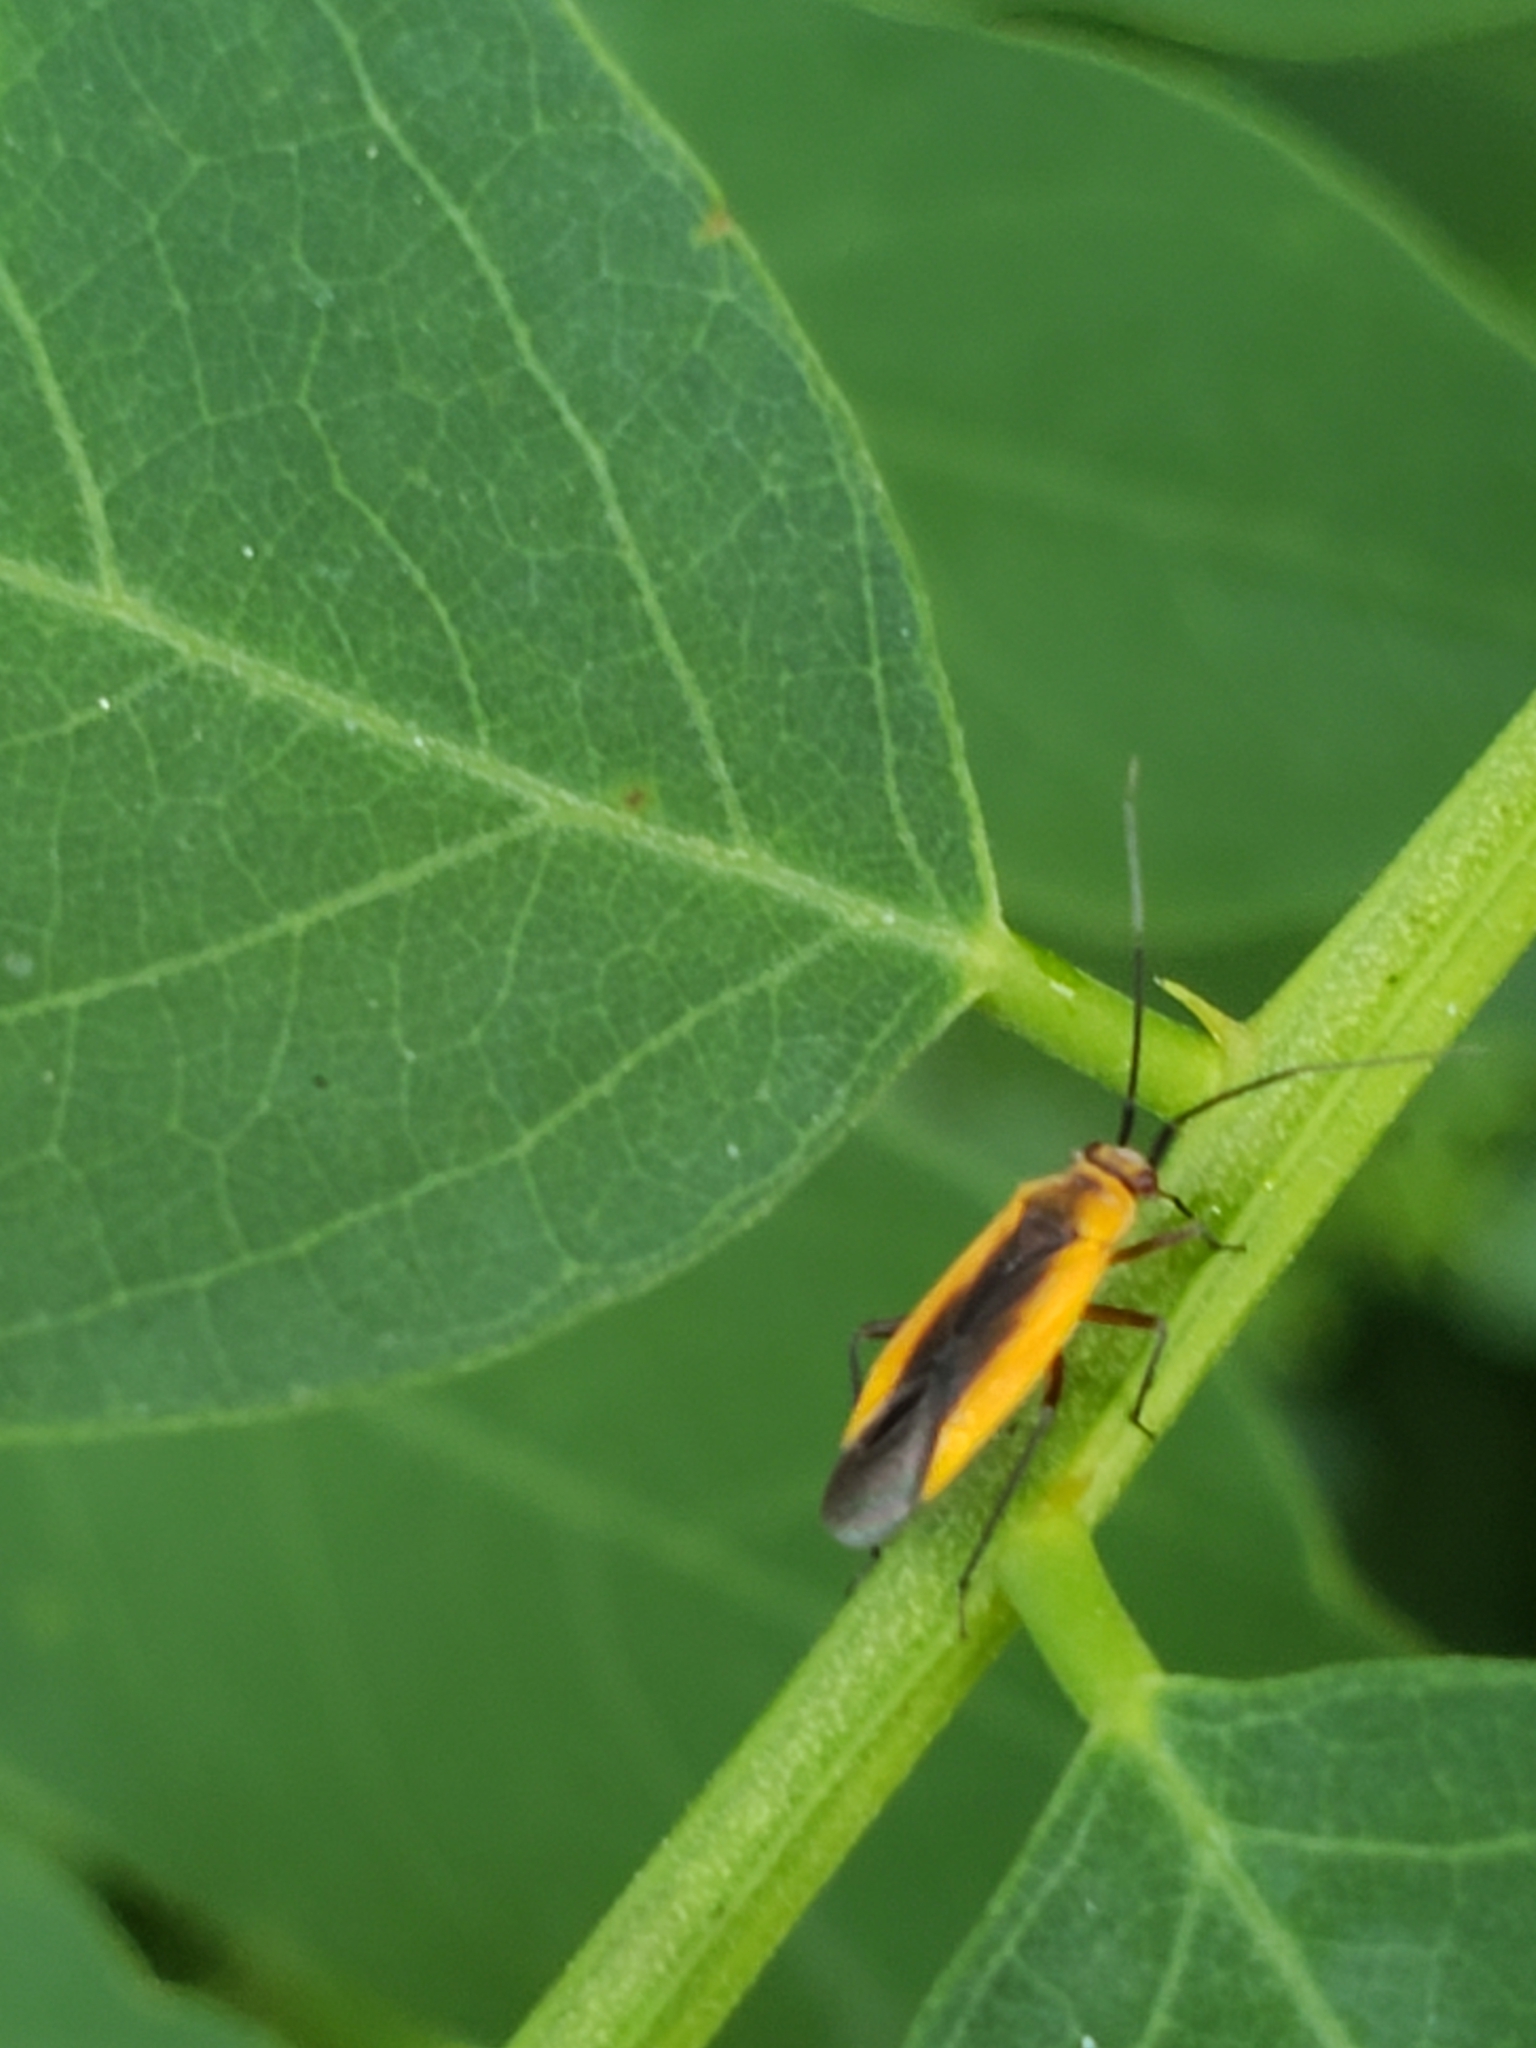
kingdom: Animalia
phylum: Arthropoda
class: Insecta
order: Hemiptera
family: Miridae
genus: Lopidea
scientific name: Lopidea robiniae
